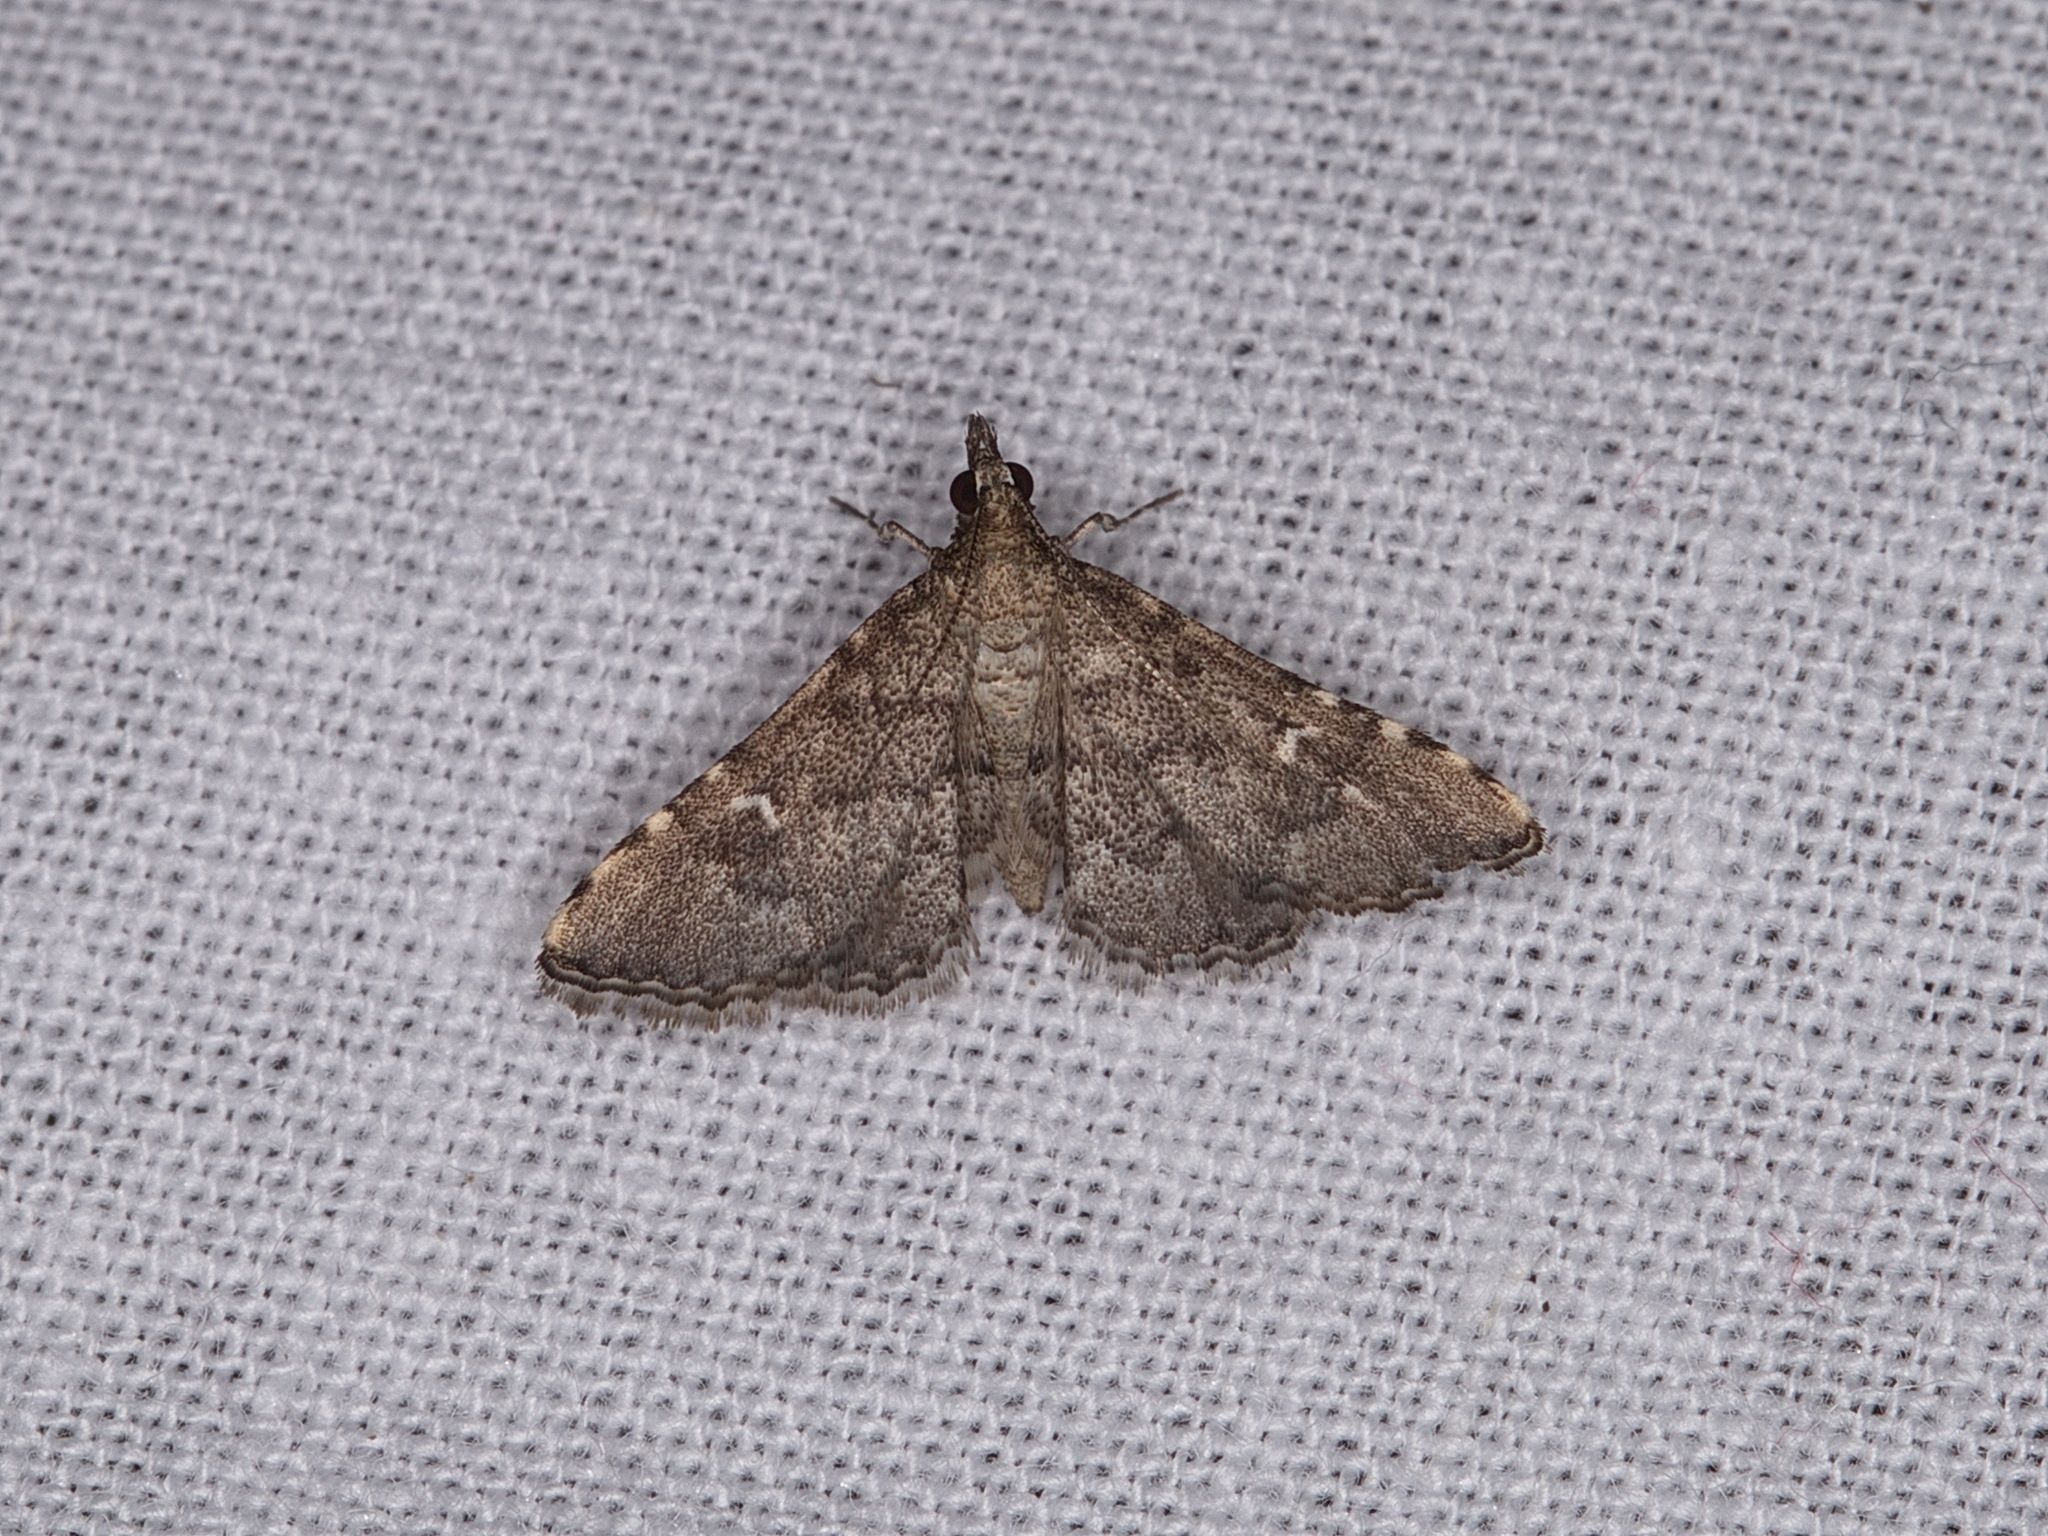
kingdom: Animalia
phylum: Arthropoda
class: Insecta
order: Lepidoptera
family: Crambidae
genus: Metasia
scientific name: Metasia capnochroa
